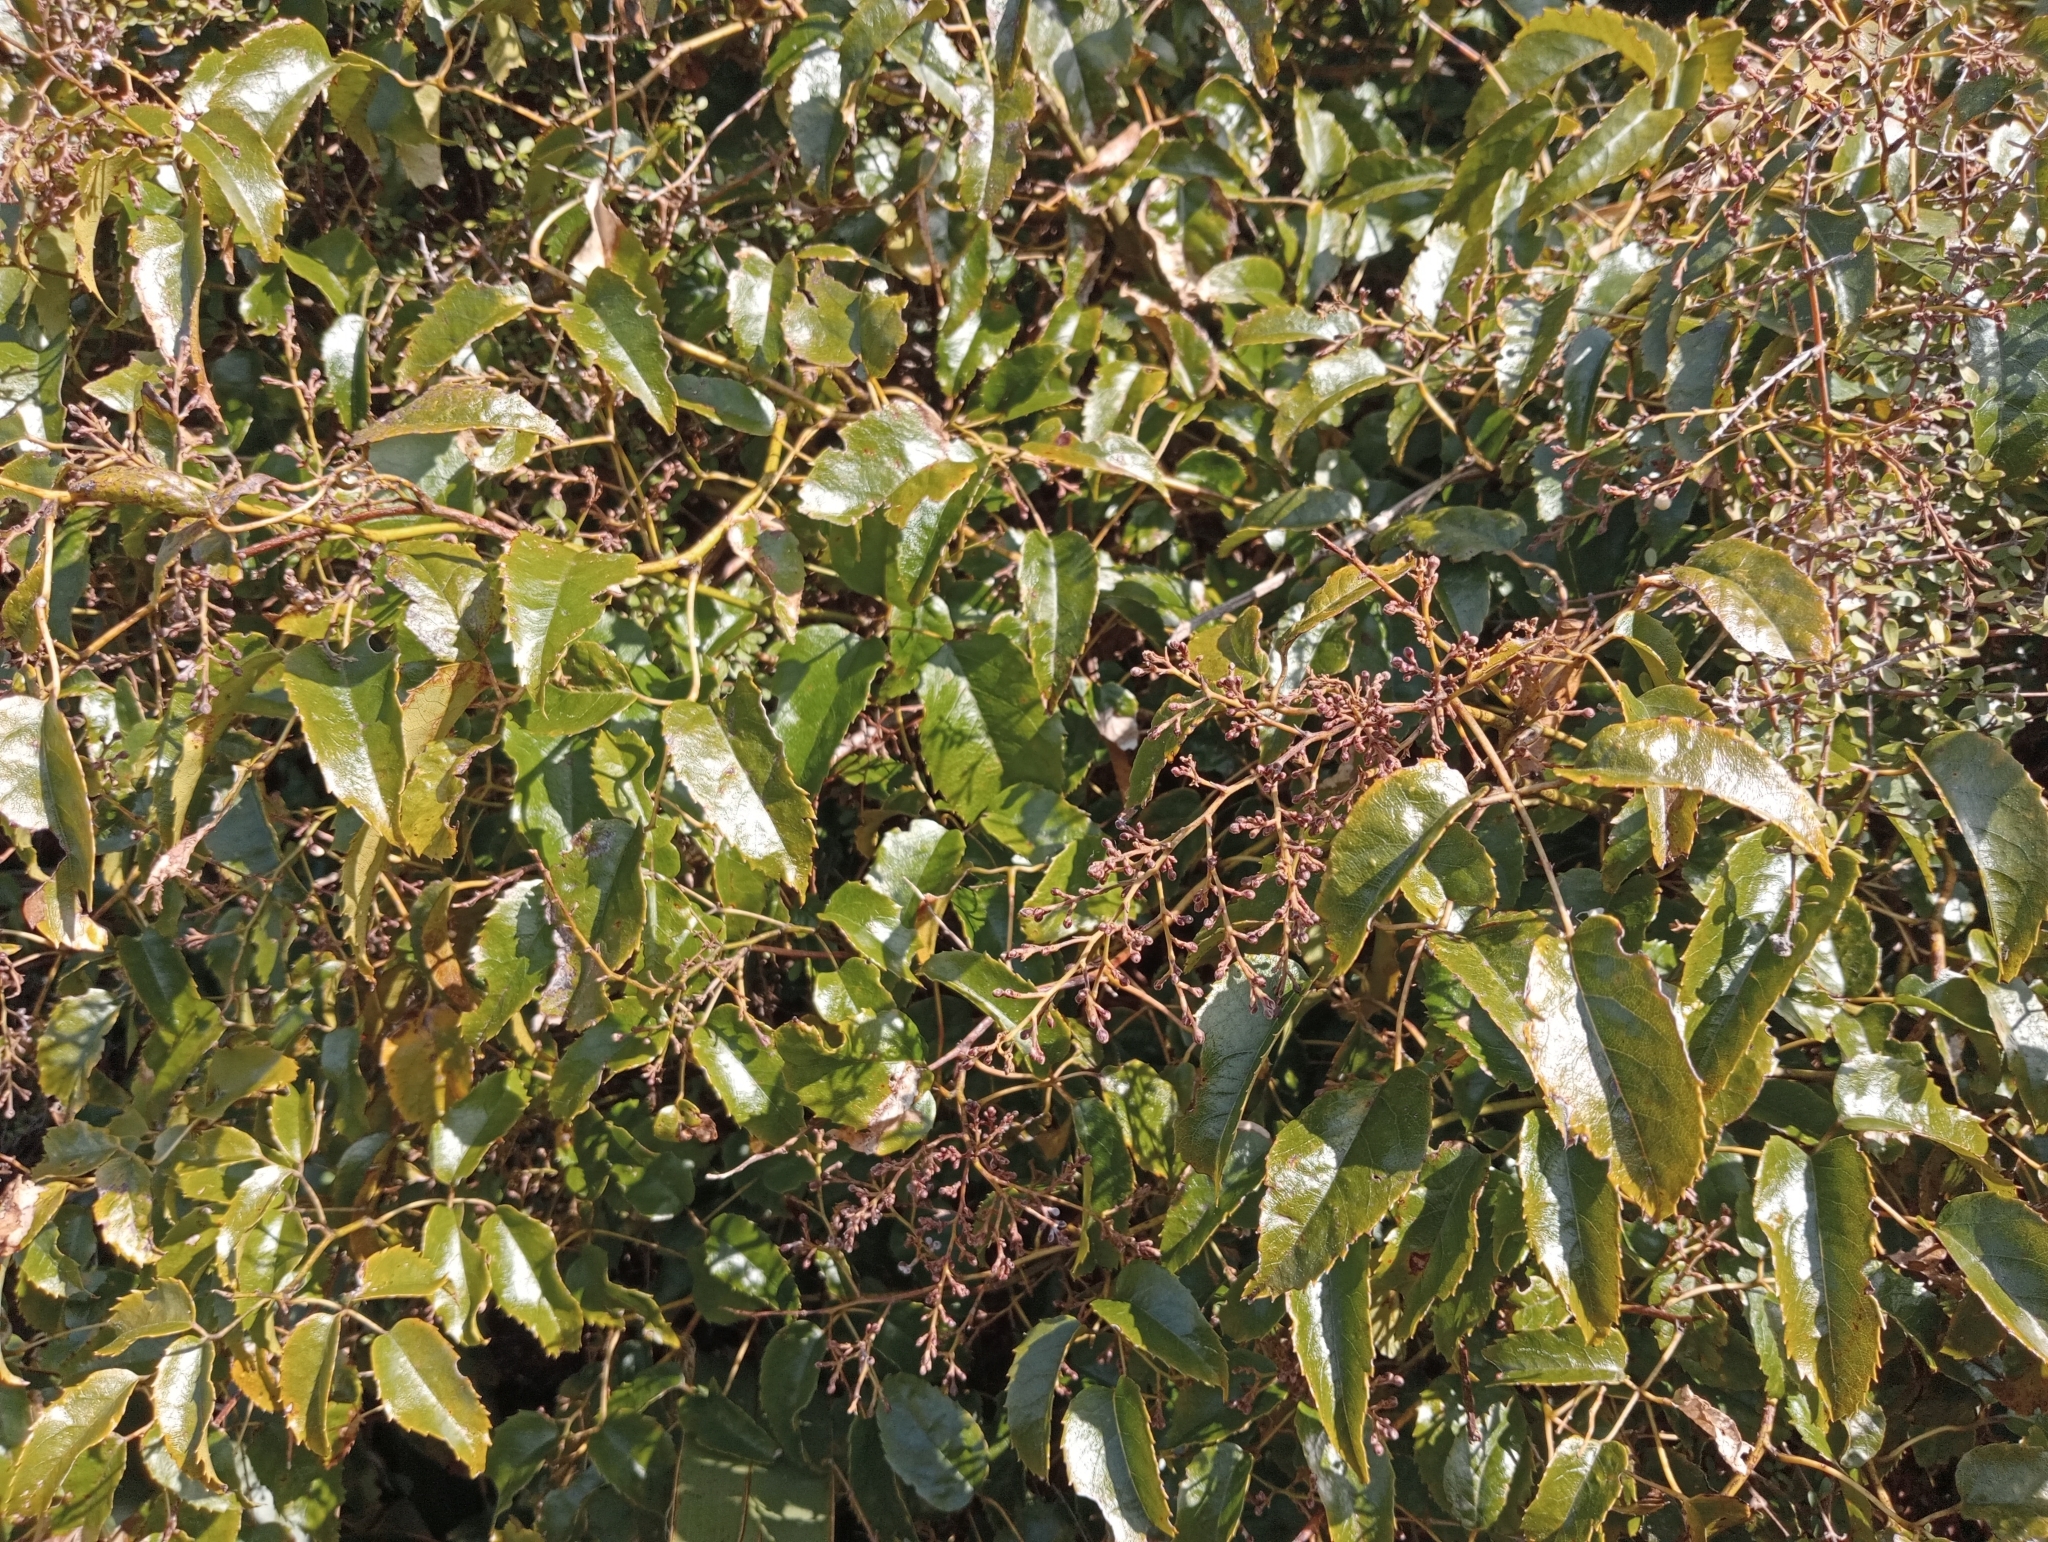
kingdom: Plantae
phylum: Tracheophyta
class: Magnoliopsida
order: Rosales
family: Rosaceae
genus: Rubus
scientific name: Rubus cissoides
